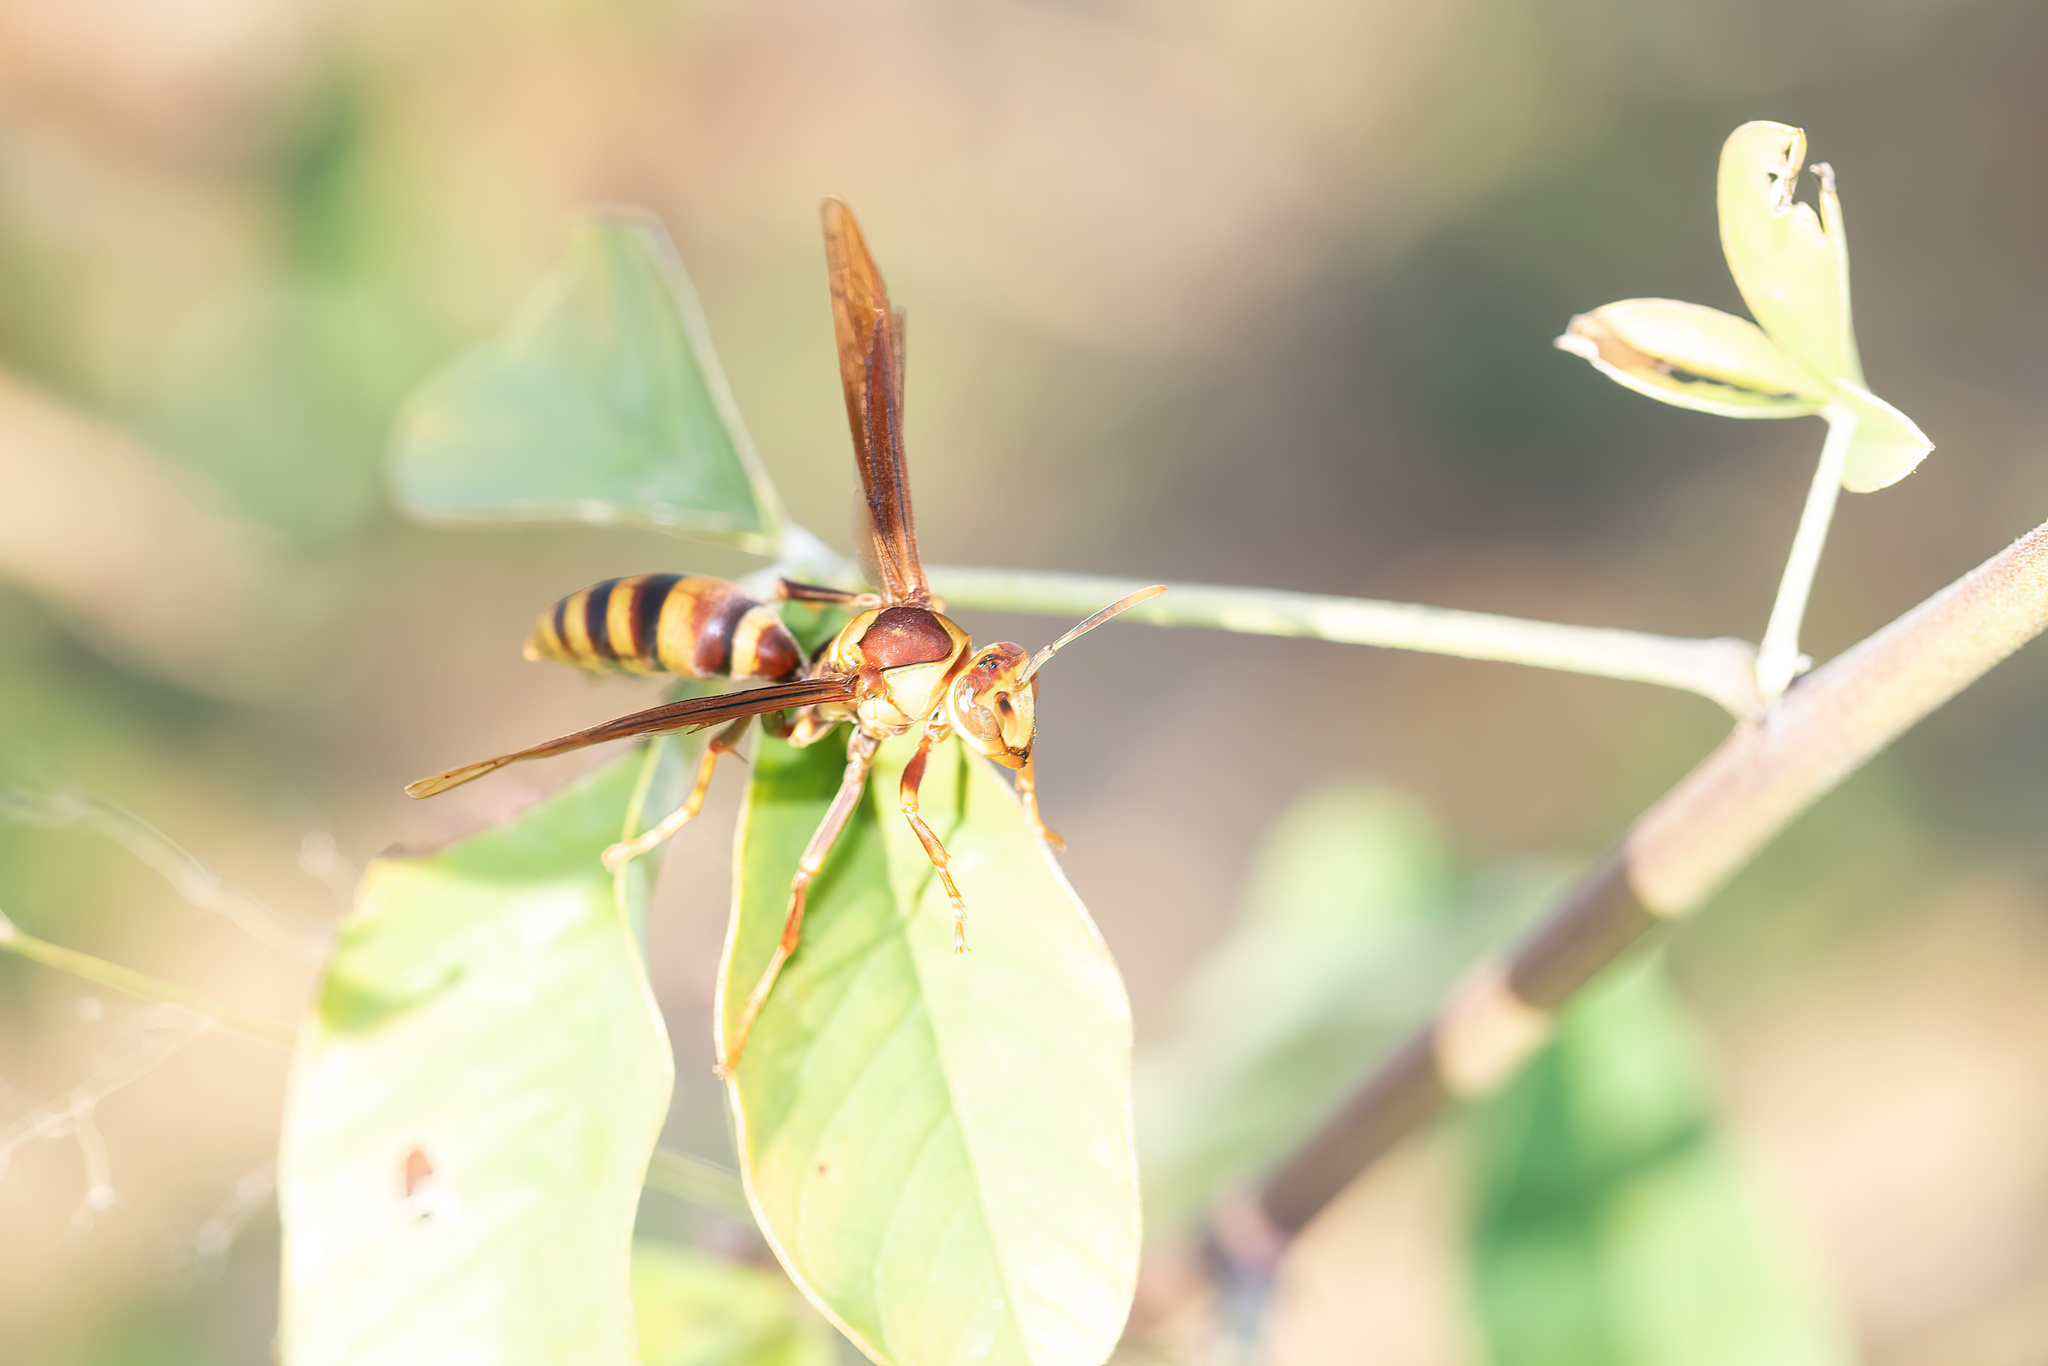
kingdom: Animalia
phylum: Arthropoda
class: Insecta
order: Hymenoptera
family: Eumenidae
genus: Polistes
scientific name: Polistes major
